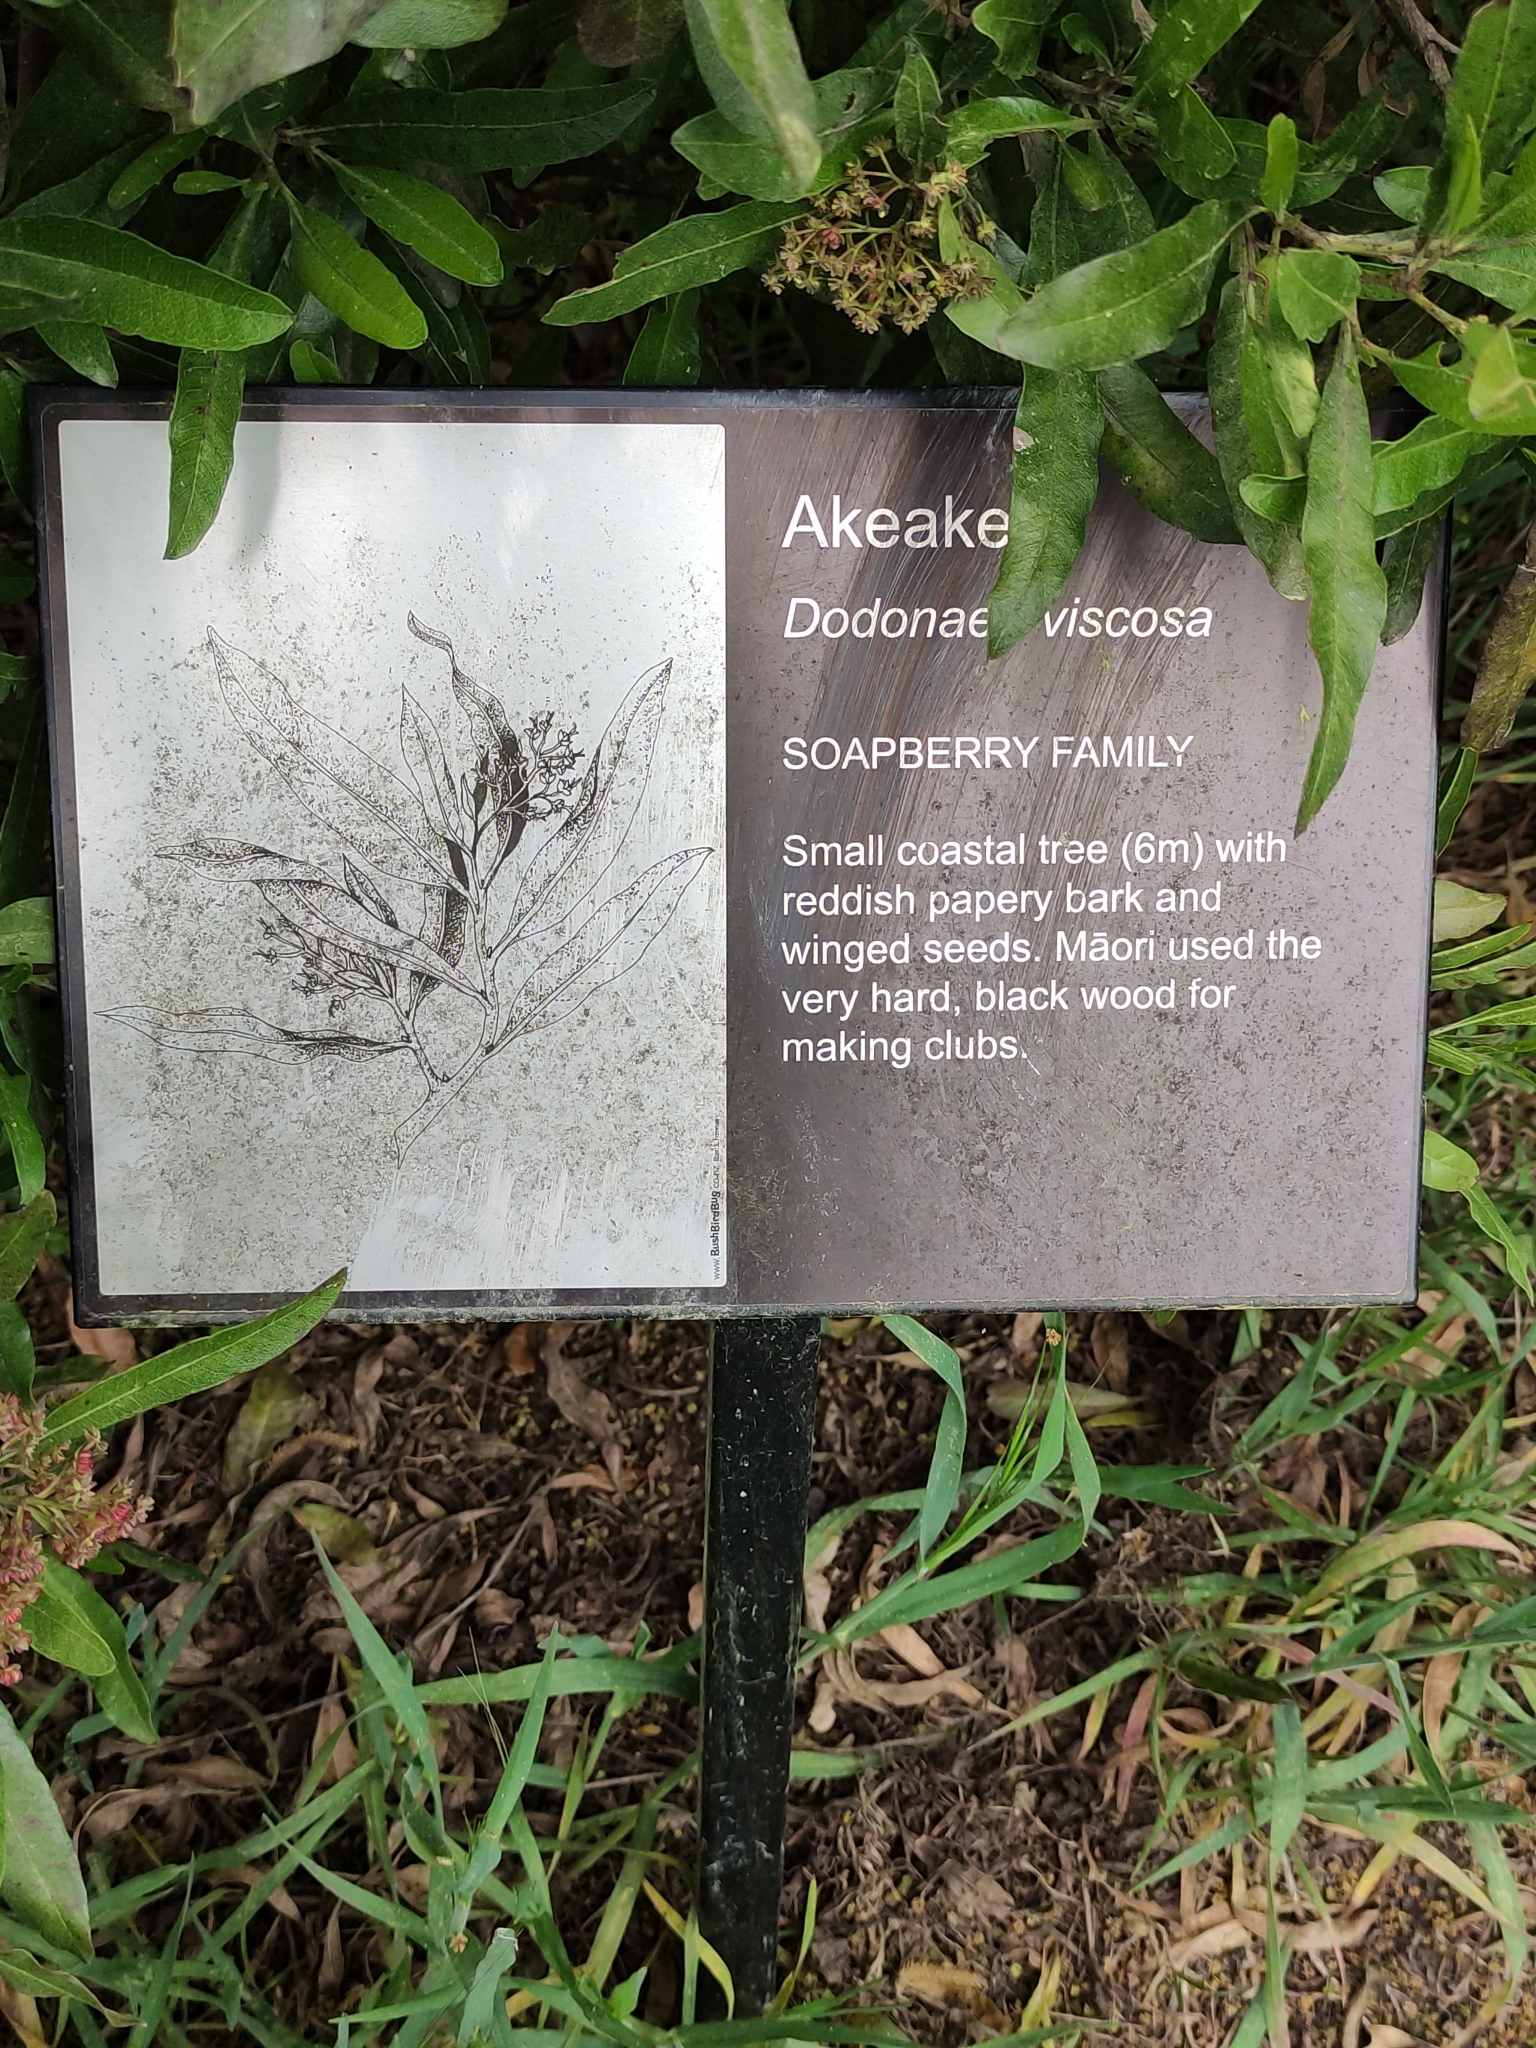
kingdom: Plantae
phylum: Tracheophyta
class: Magnoliopsida
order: Sapindales
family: Sapindaceae
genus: Dodonaea
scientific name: Dodonaea viscosa
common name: Hopbush
